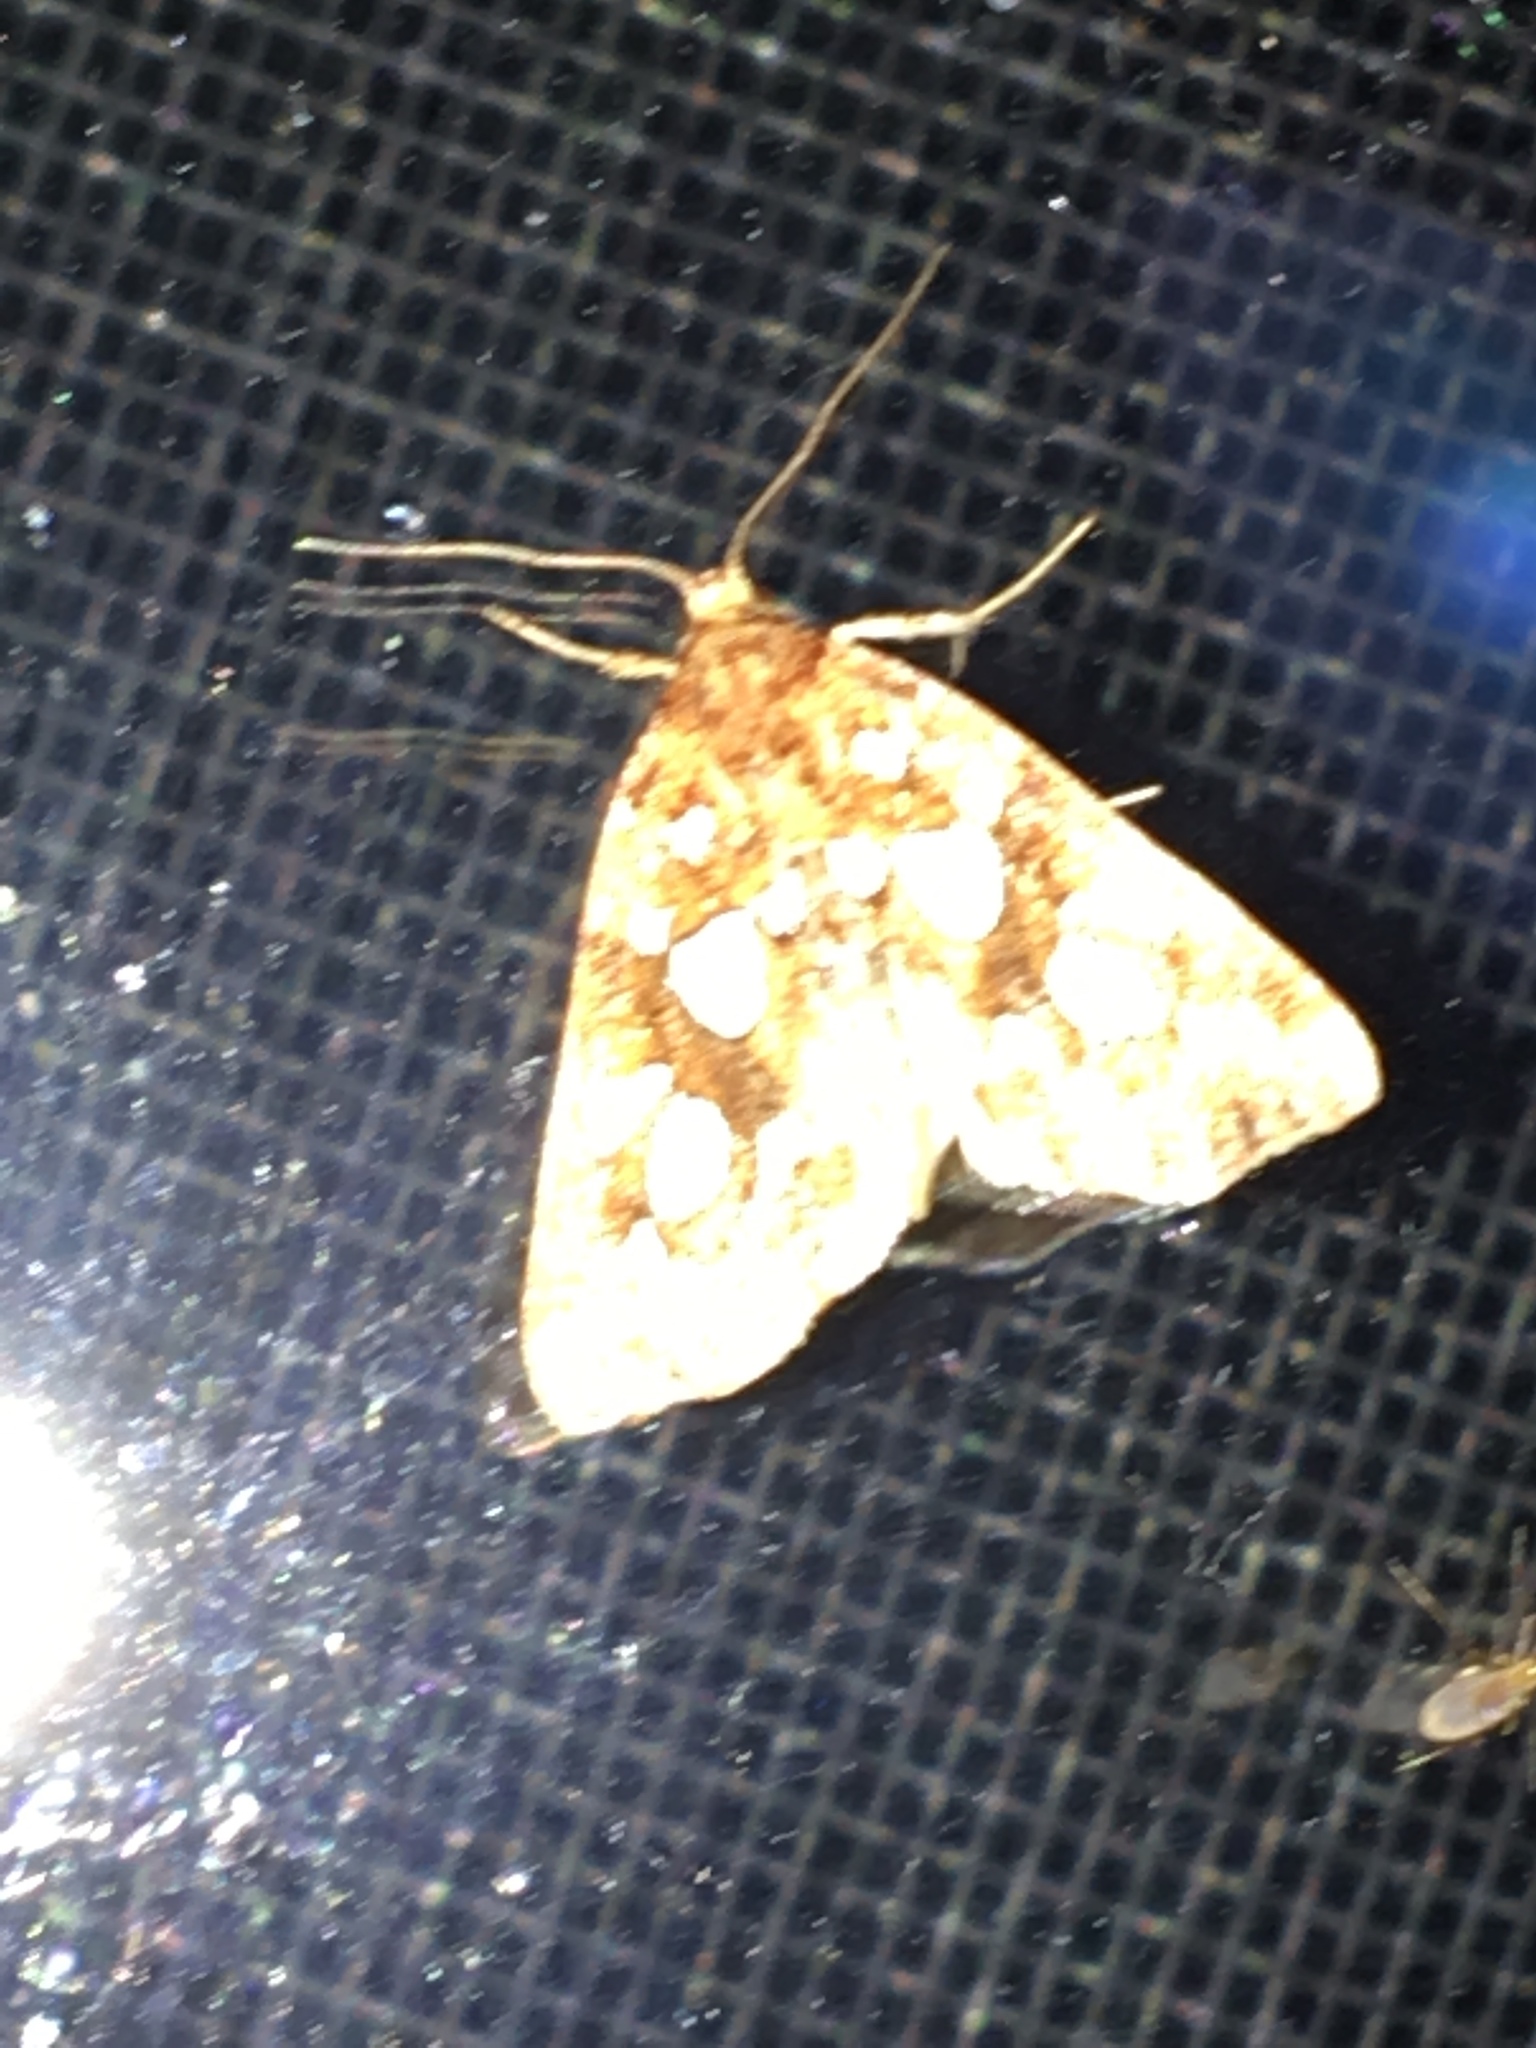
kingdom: Animalia
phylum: Arthropoda
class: Insecta
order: Lepidoptera
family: Noctuidae
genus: Callopistria
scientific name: Callopistria cordata
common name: Silver-spotted fern moth
